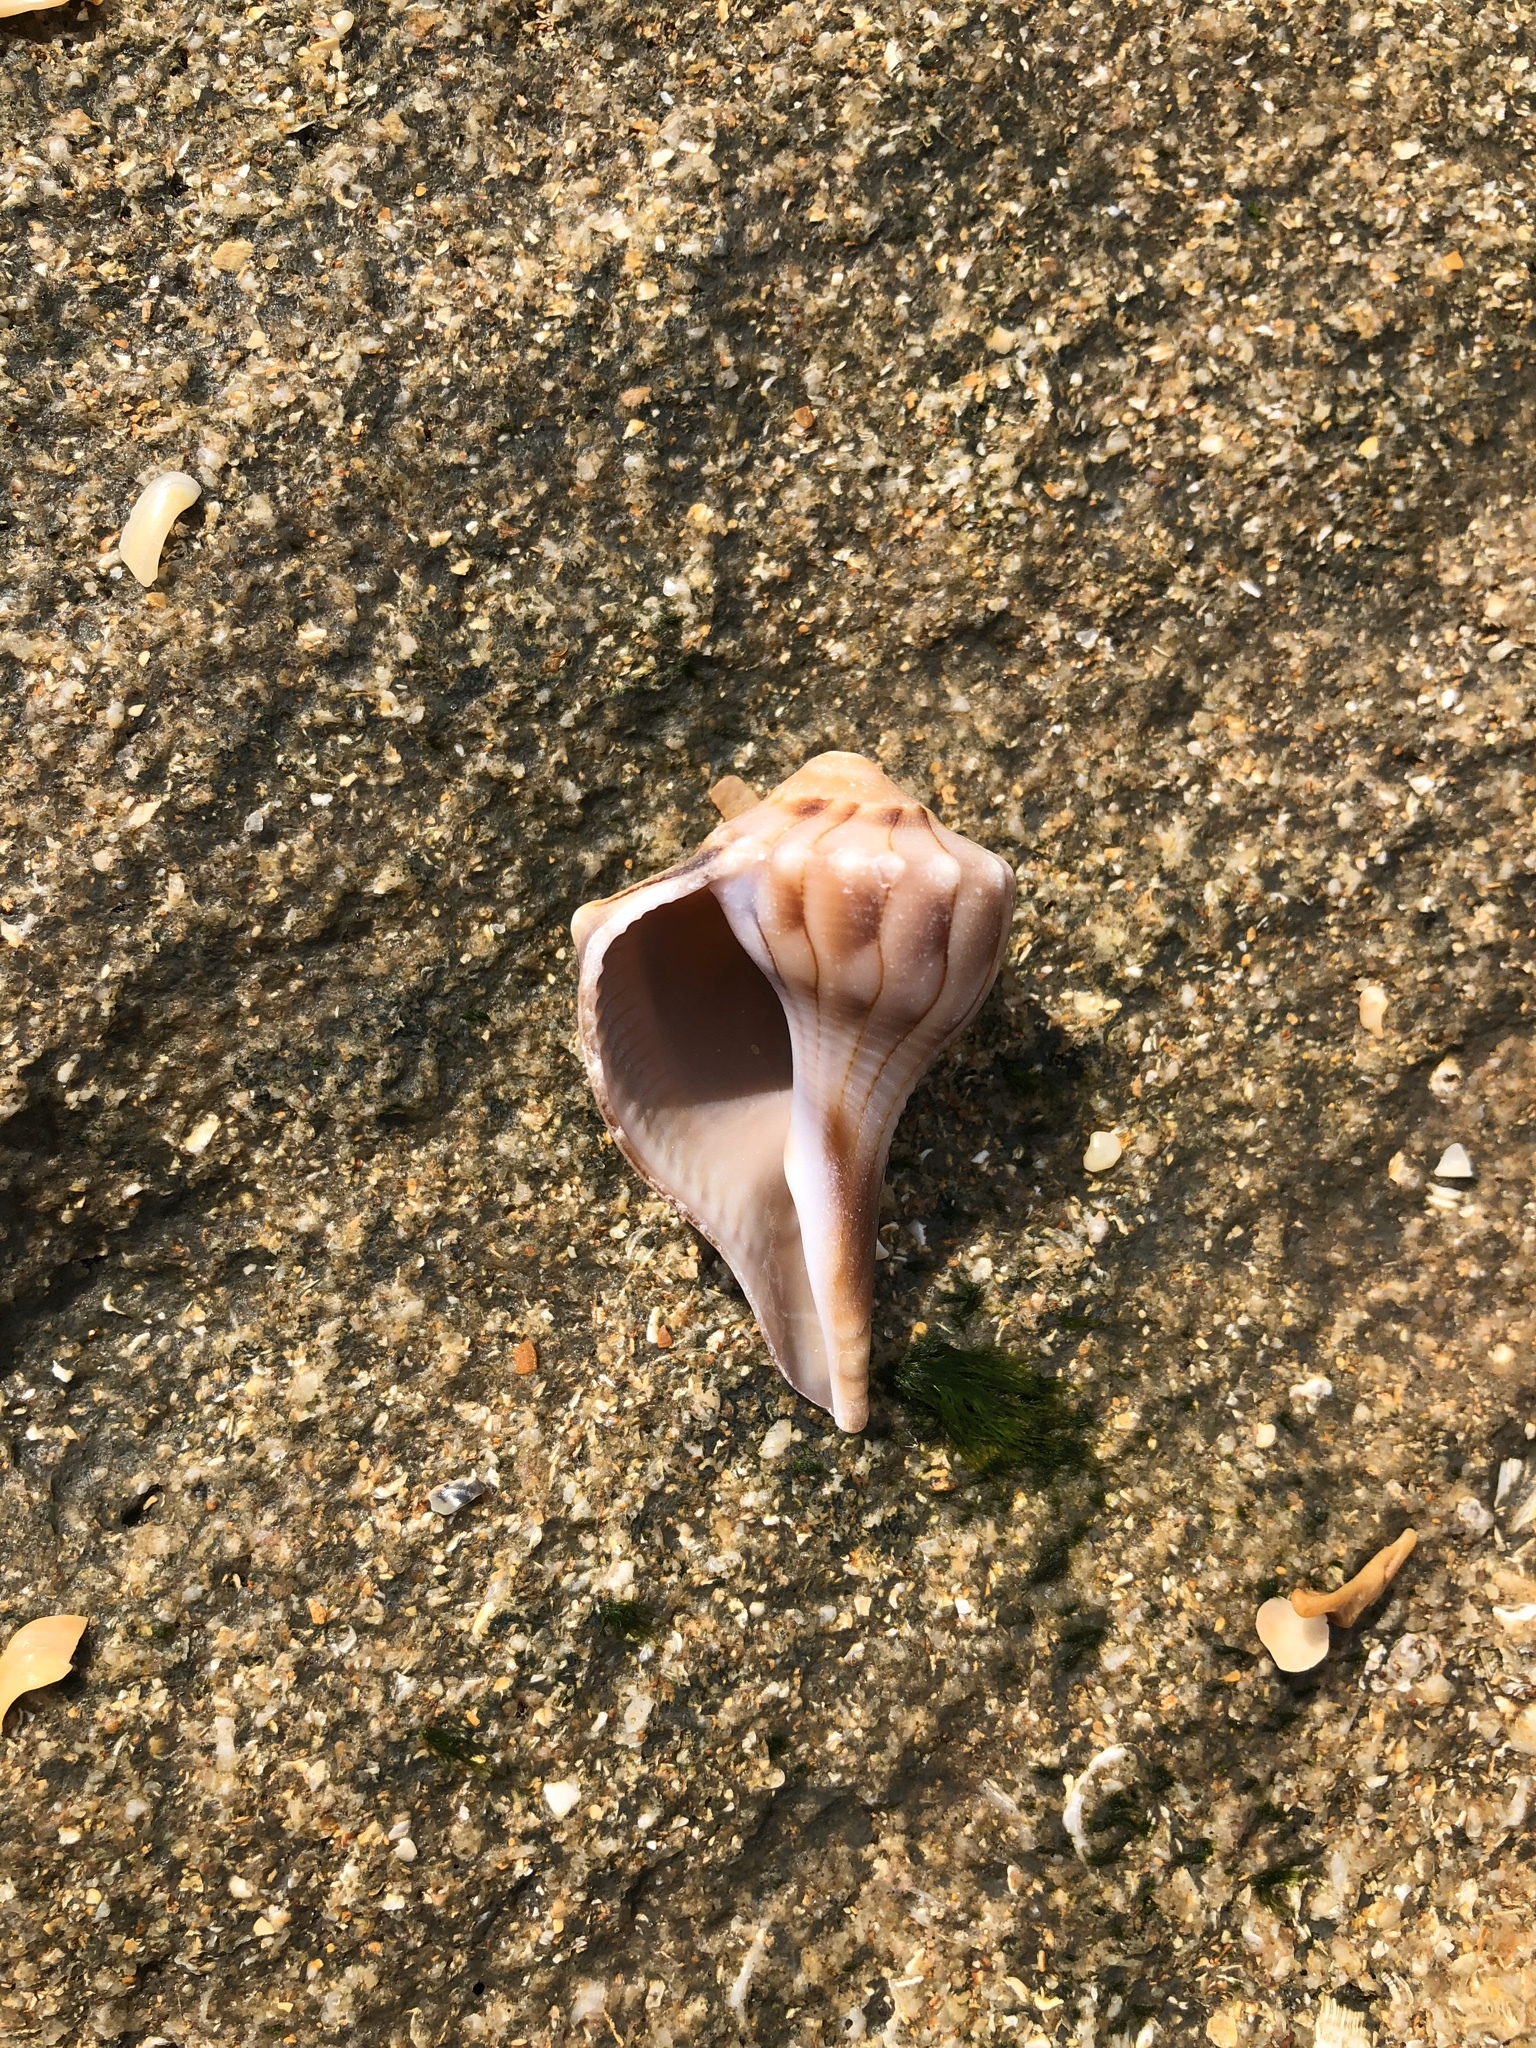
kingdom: Animalia
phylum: Mollusca
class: Gastropoda
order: Neogastropoda
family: Busyconidae
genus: Sinistrofulgur
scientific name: Sinistrofulgur sinistrum
